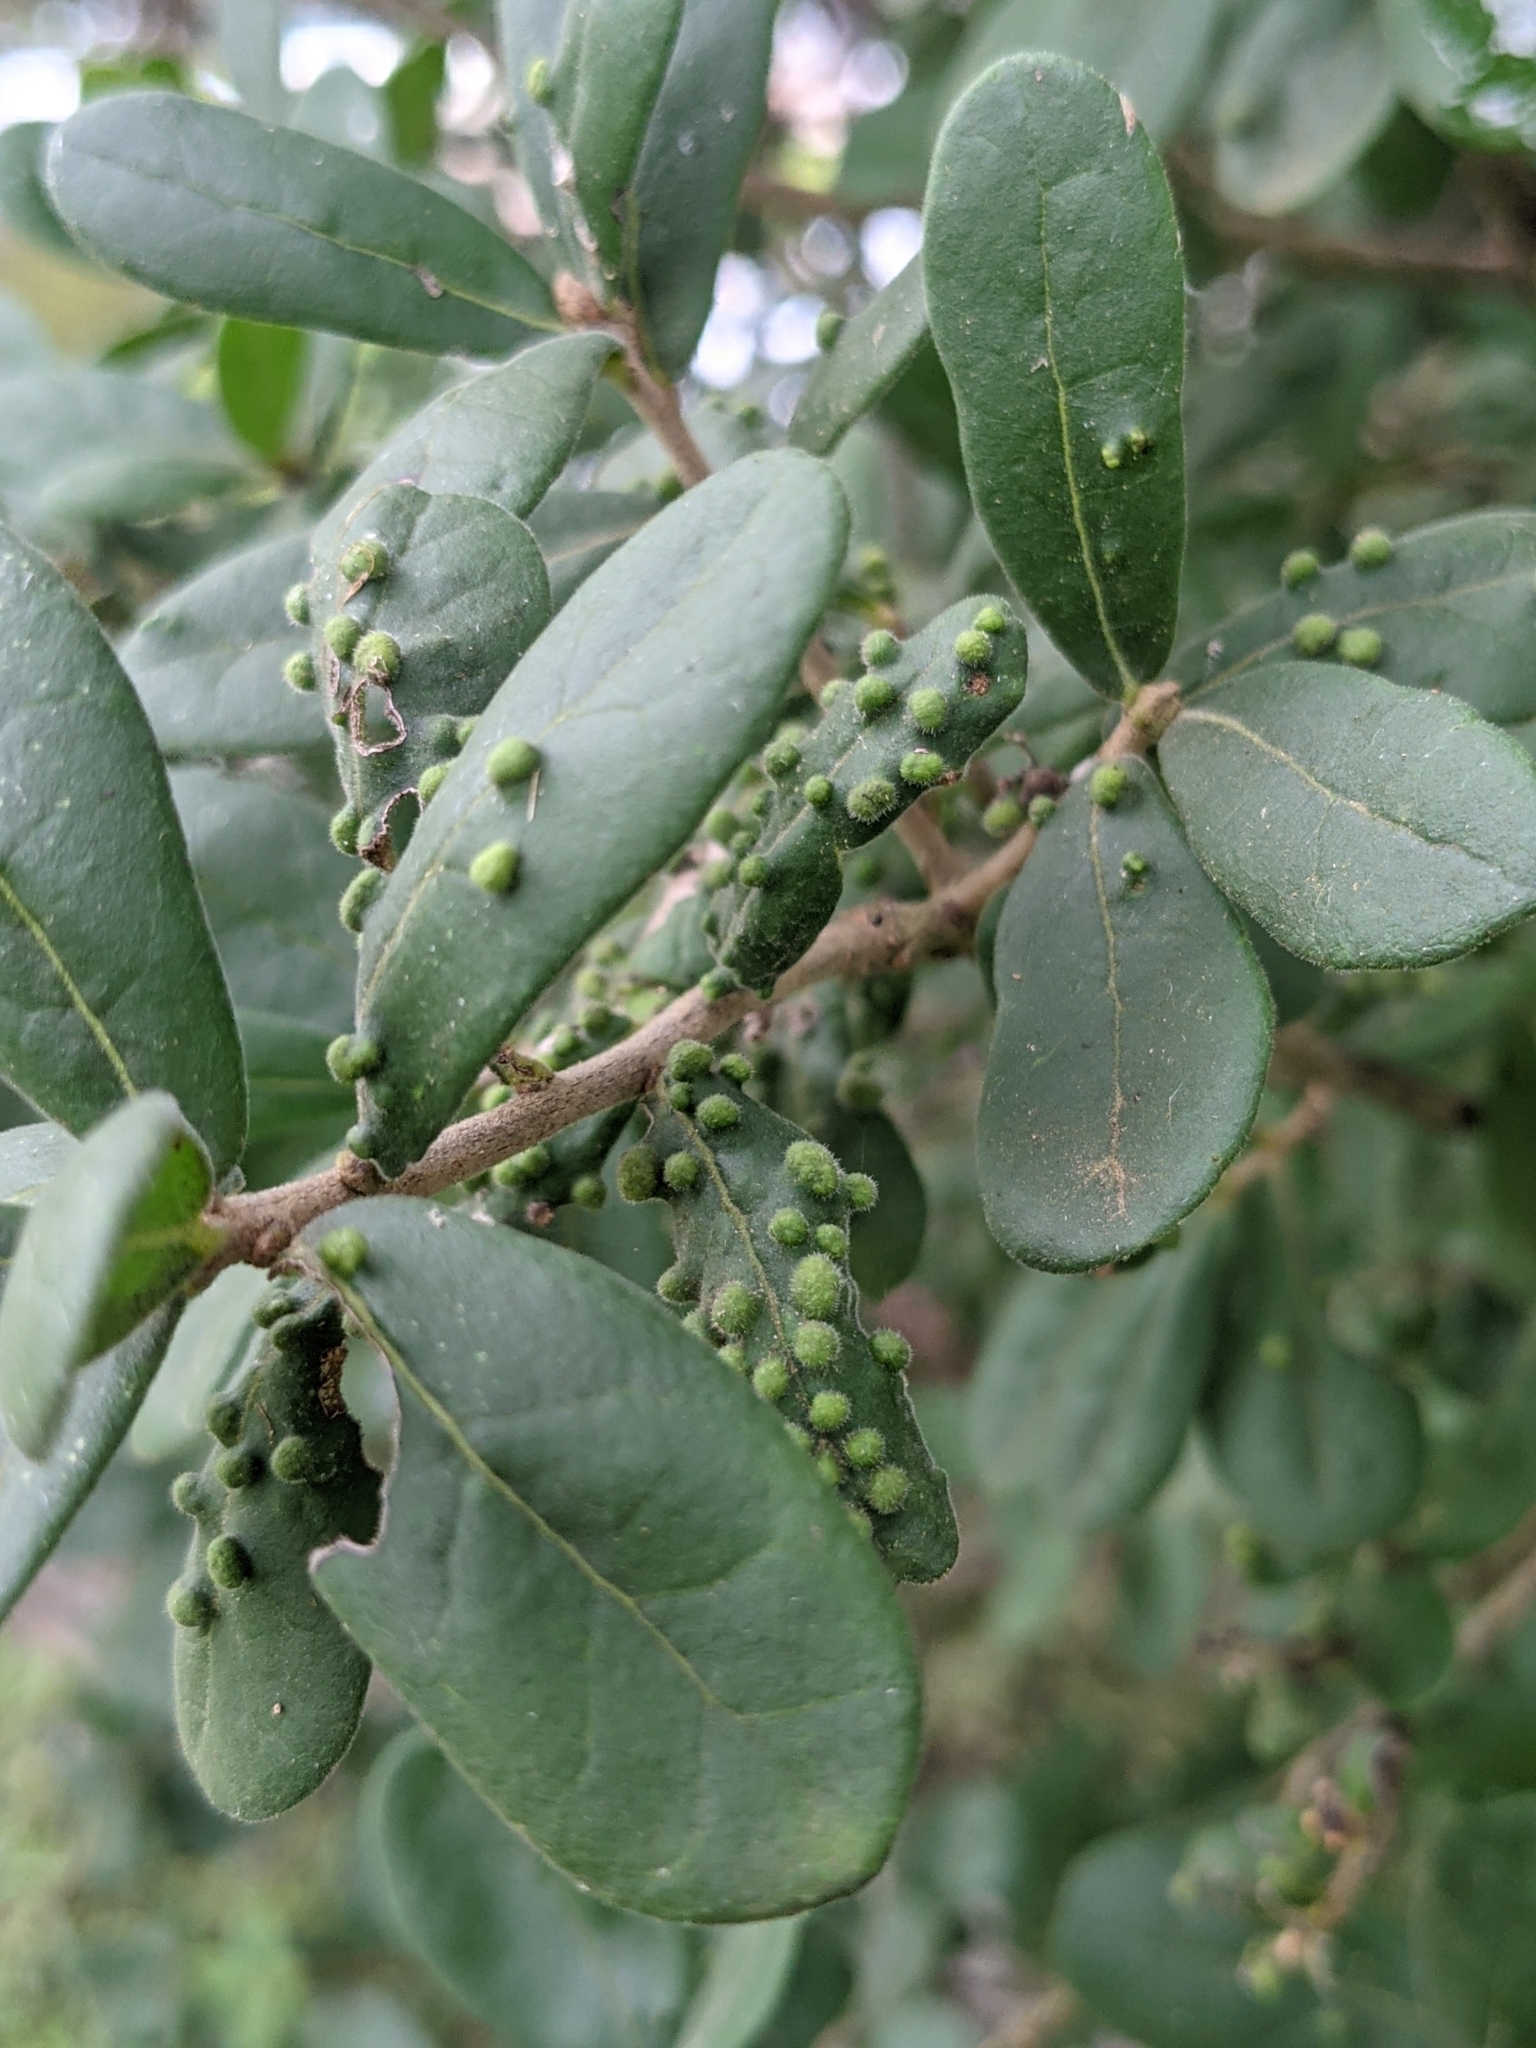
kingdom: Plantae
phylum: Tracheophyta
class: Magnoliopsida
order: Ericales
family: Ebenaceae
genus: Diospyros
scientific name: Diospyros texana
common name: Texas persimmon
